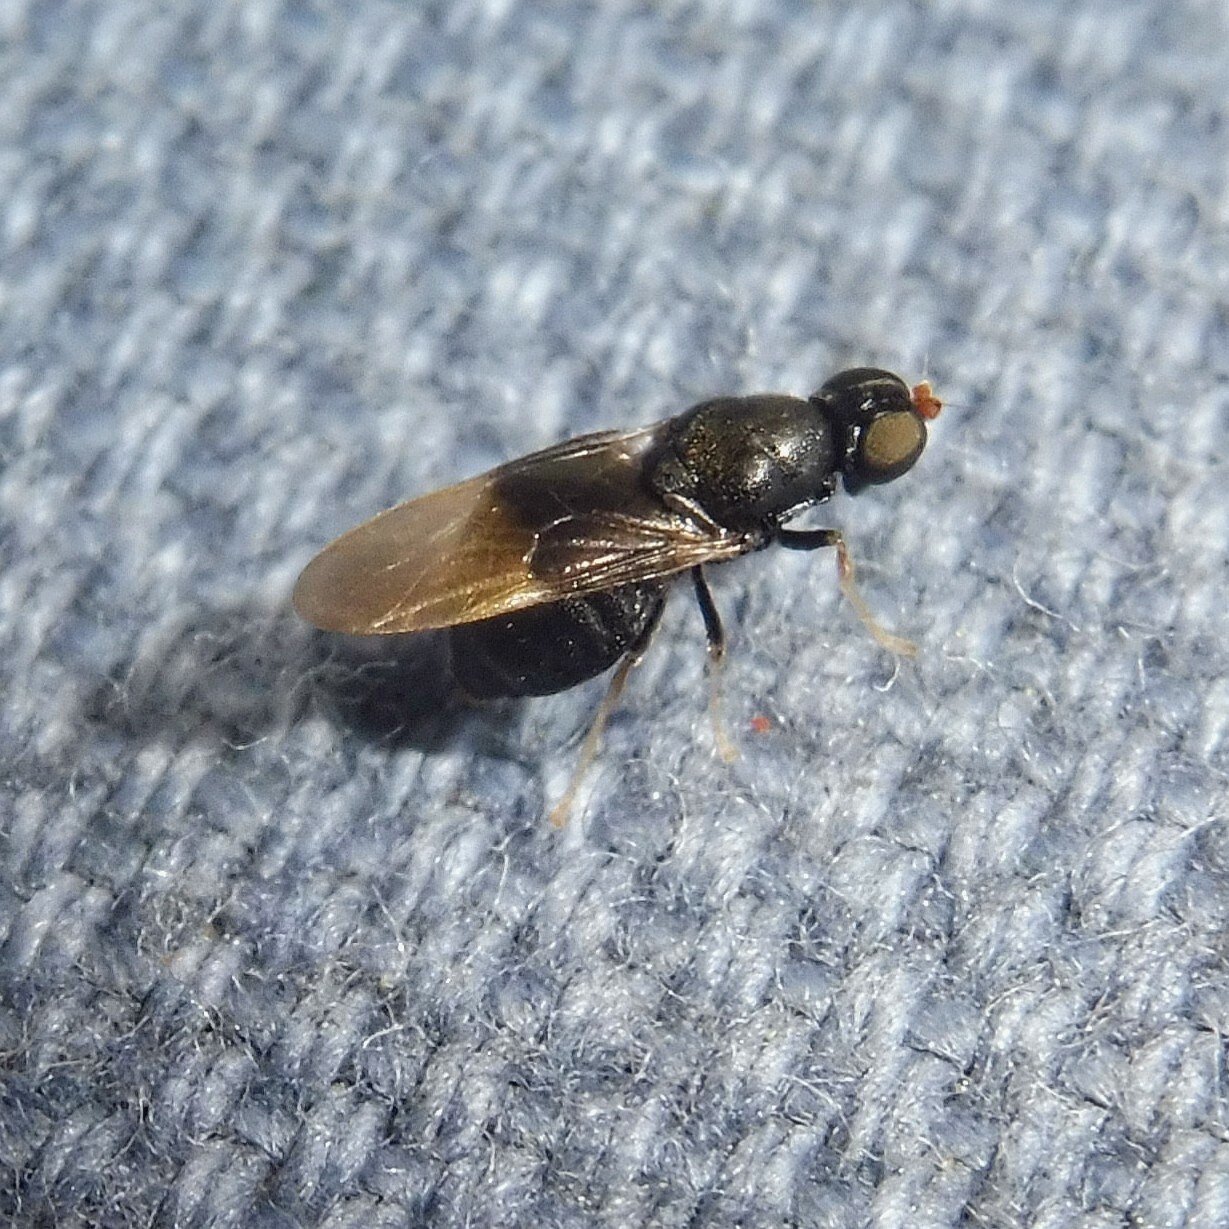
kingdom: Animalia
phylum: Arthropoda
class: Insecta
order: Diptera
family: Stratiomyidae
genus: Pachygaster
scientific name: Pachygaster atra
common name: Dark-winged black
